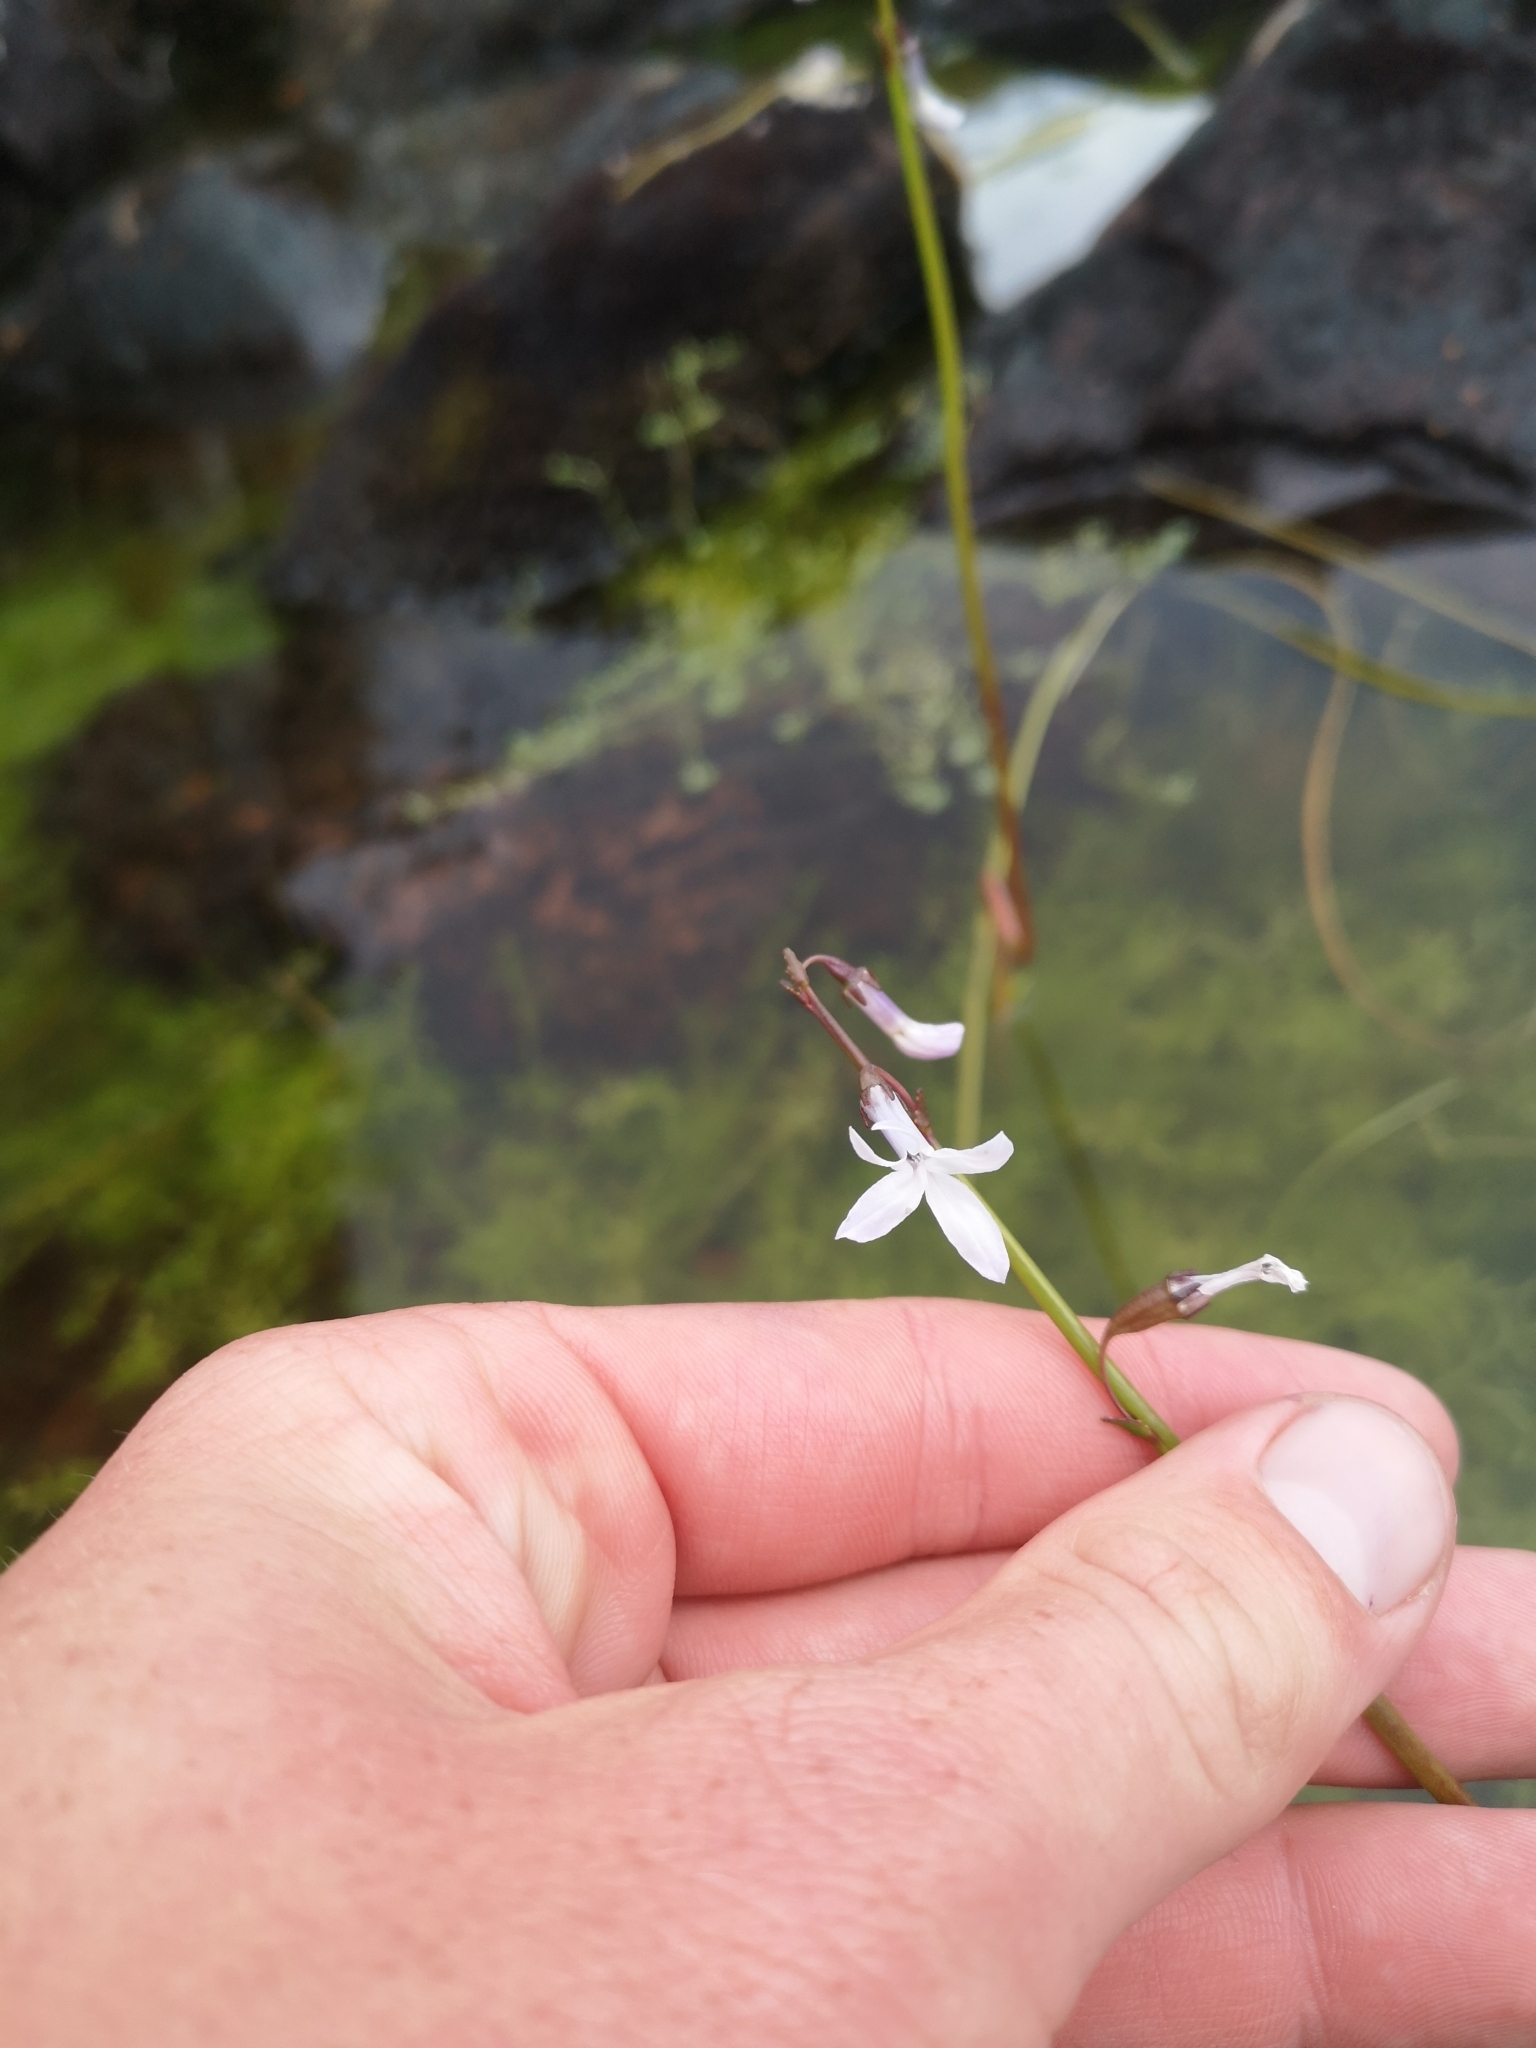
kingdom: Plantae
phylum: Tracheophyta
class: Magnoliopsida
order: Asterales
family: Campanulaceae
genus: Lobelia
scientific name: Lobelia dortmanna
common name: Water lobelia
